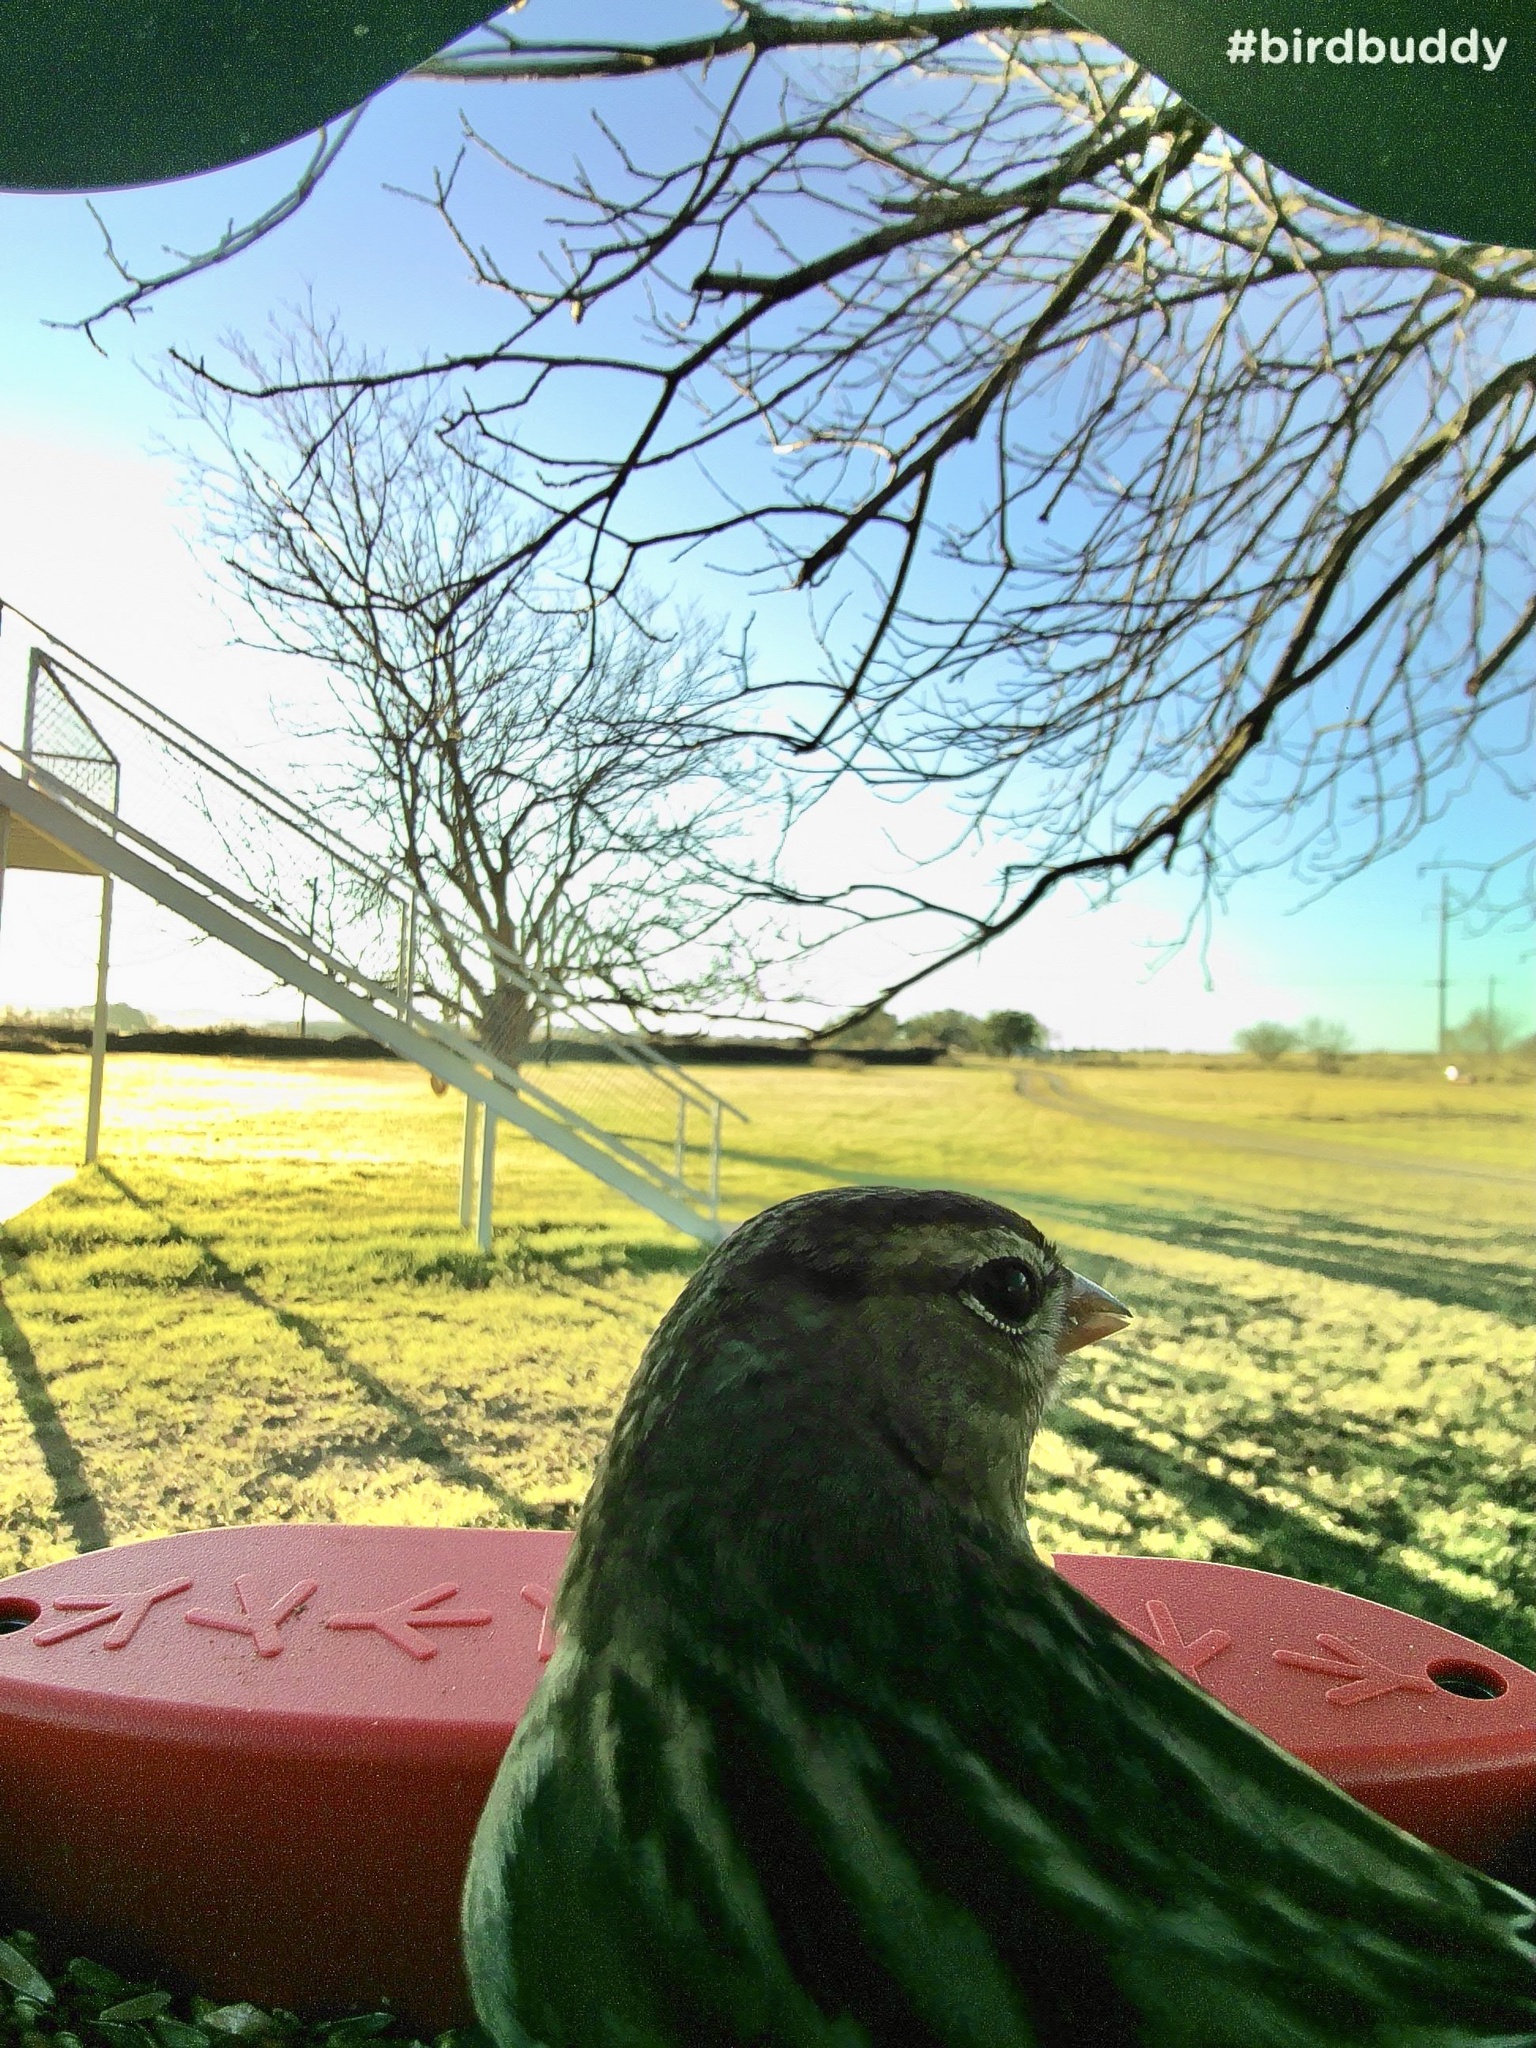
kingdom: Animalia
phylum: Chordata
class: Aves
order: Passeriformes
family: Passerellidae
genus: Zonotrichia
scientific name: Zonotrichia leucophrys
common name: White-crowned sparrow
